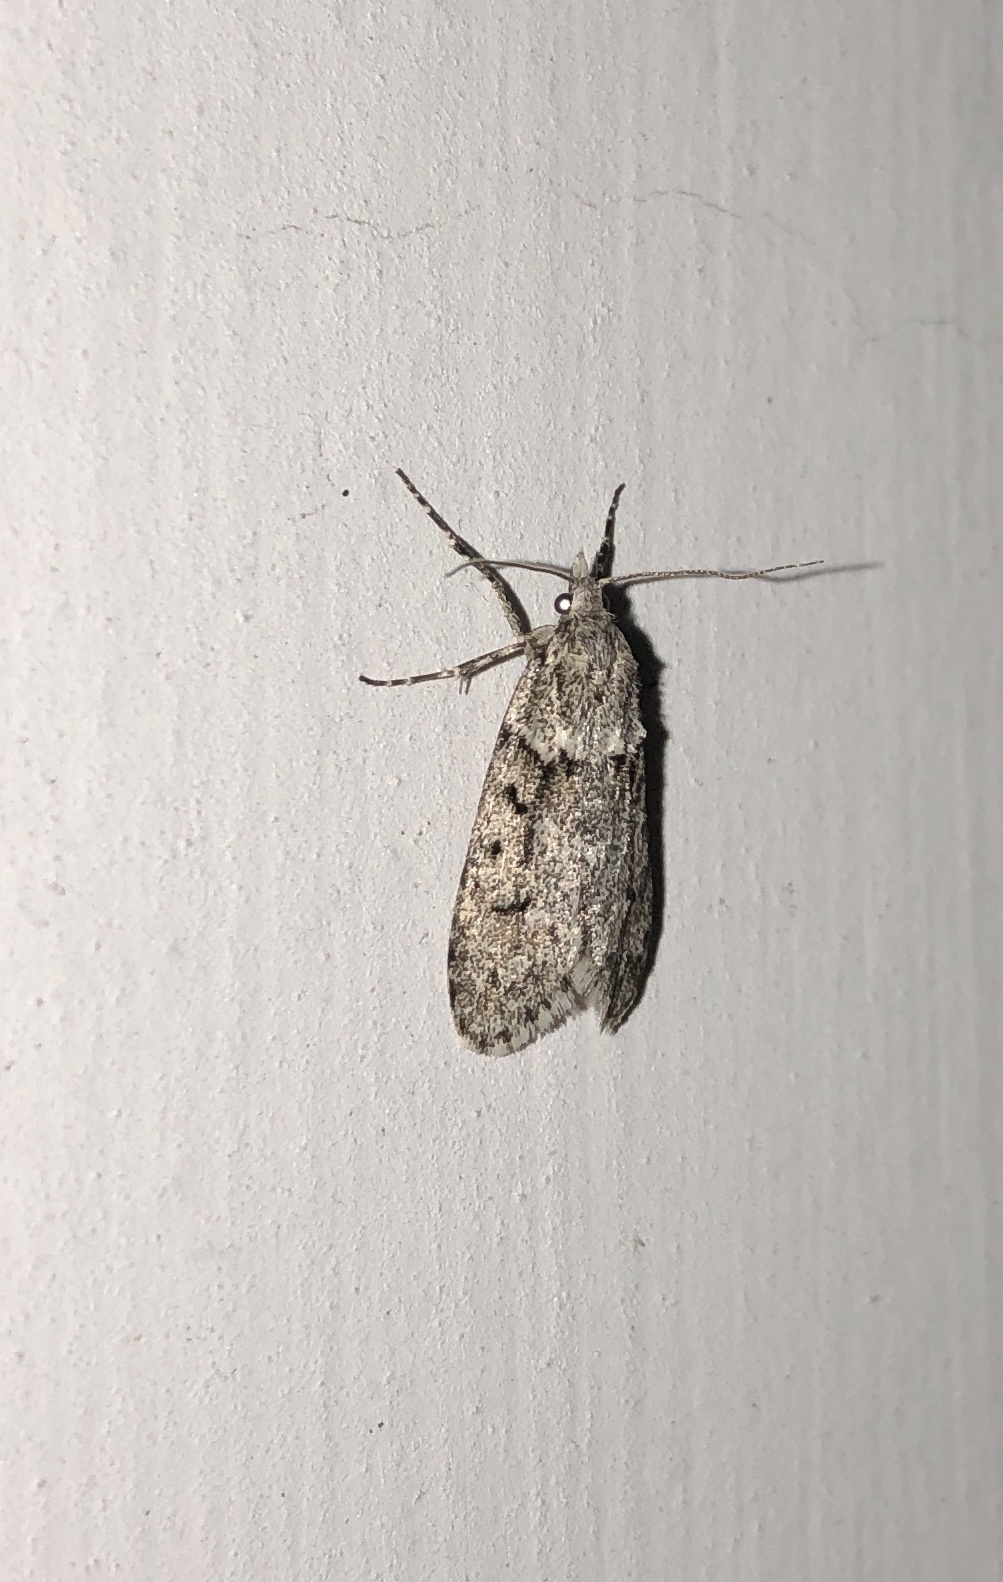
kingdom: Animalia
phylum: Arthropoda
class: Insecta
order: Lepidoptera
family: Lypusidae
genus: Diurnea
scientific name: Diurnea fagella
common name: March tubic
